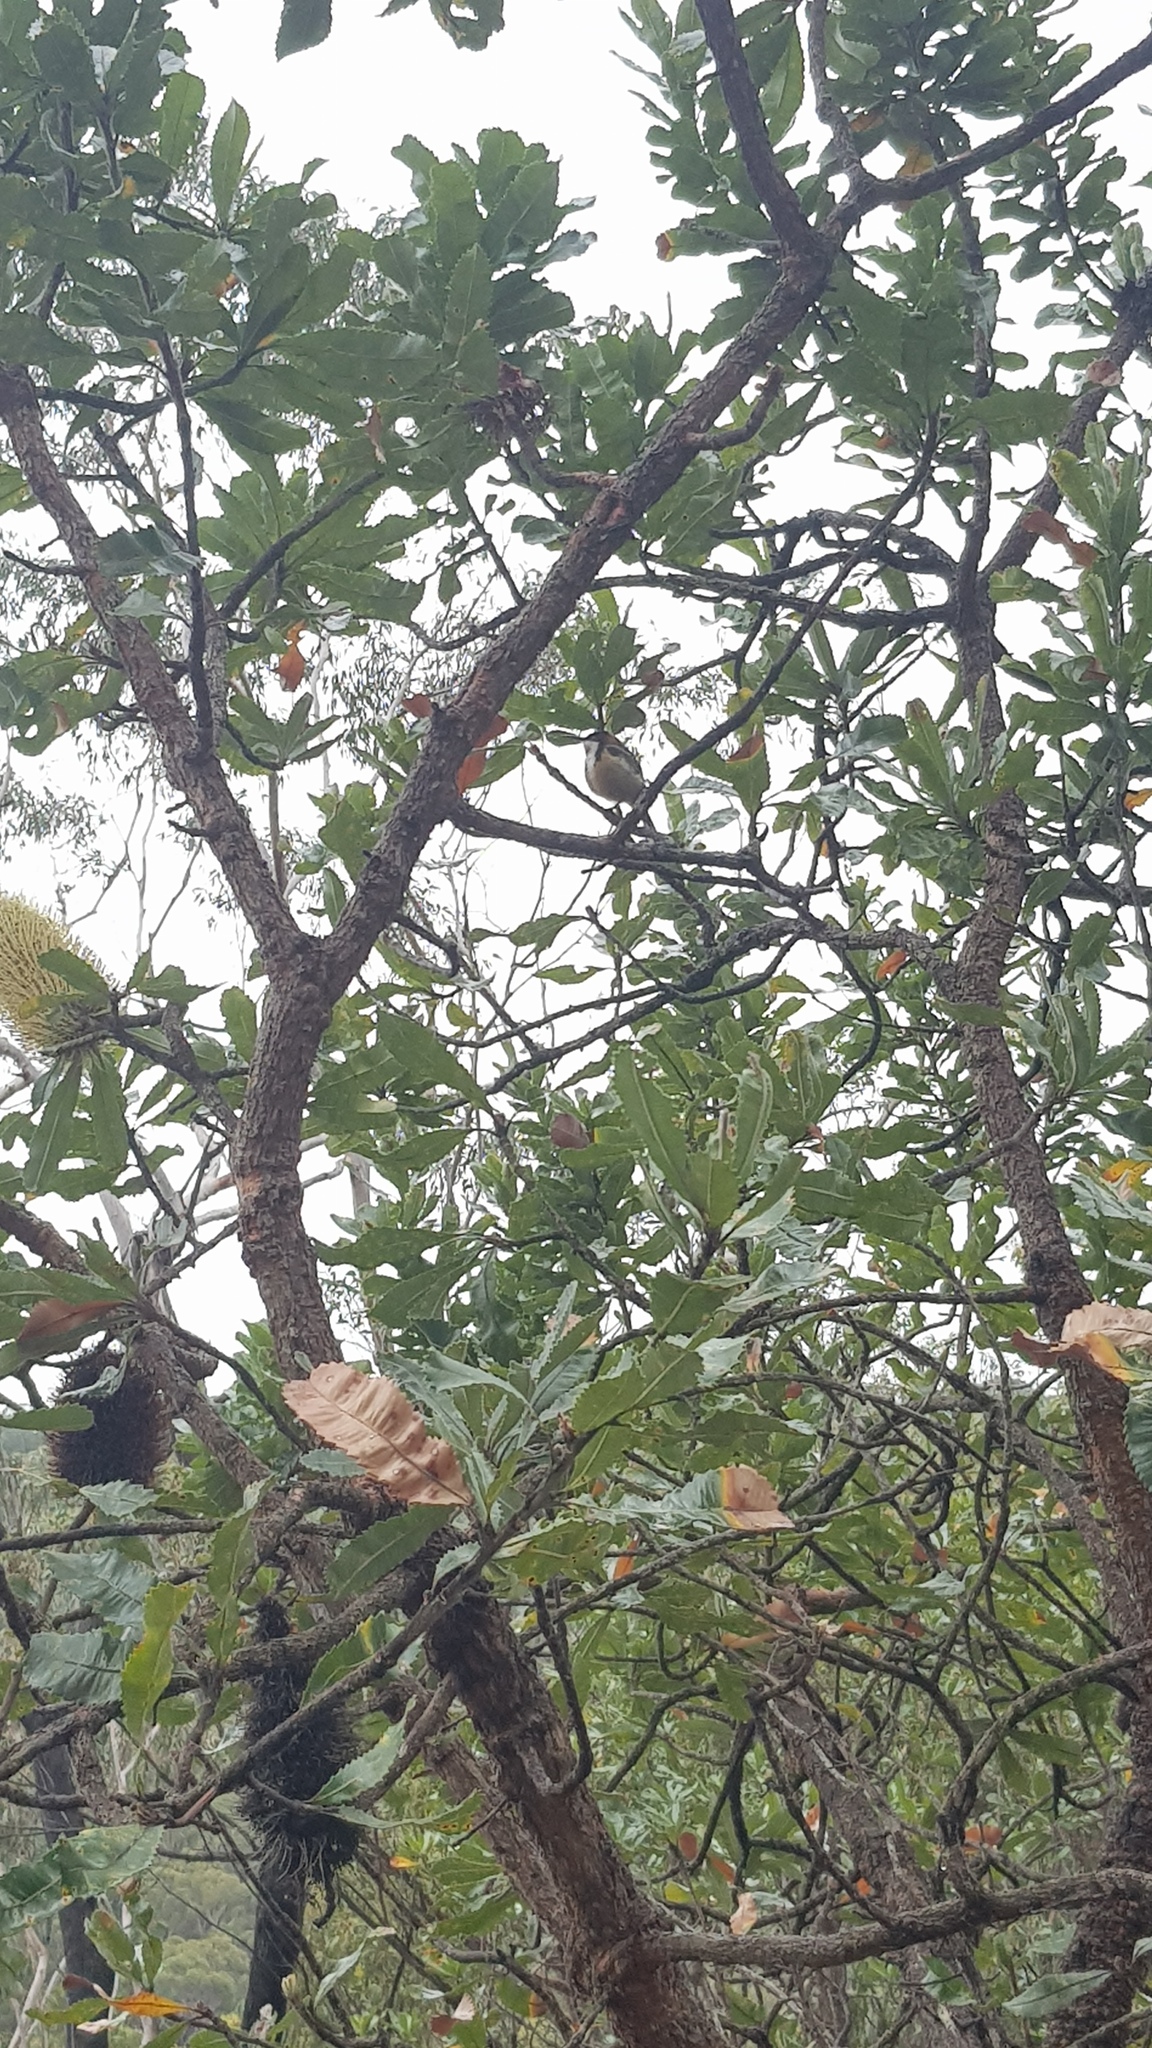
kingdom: Animalia
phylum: Chordata
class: Aves
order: Passeriformes
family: Meliphagidae
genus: Acanthorhynchus
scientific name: Acanthorhynchus tenuirostris
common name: Eastern spinebill
